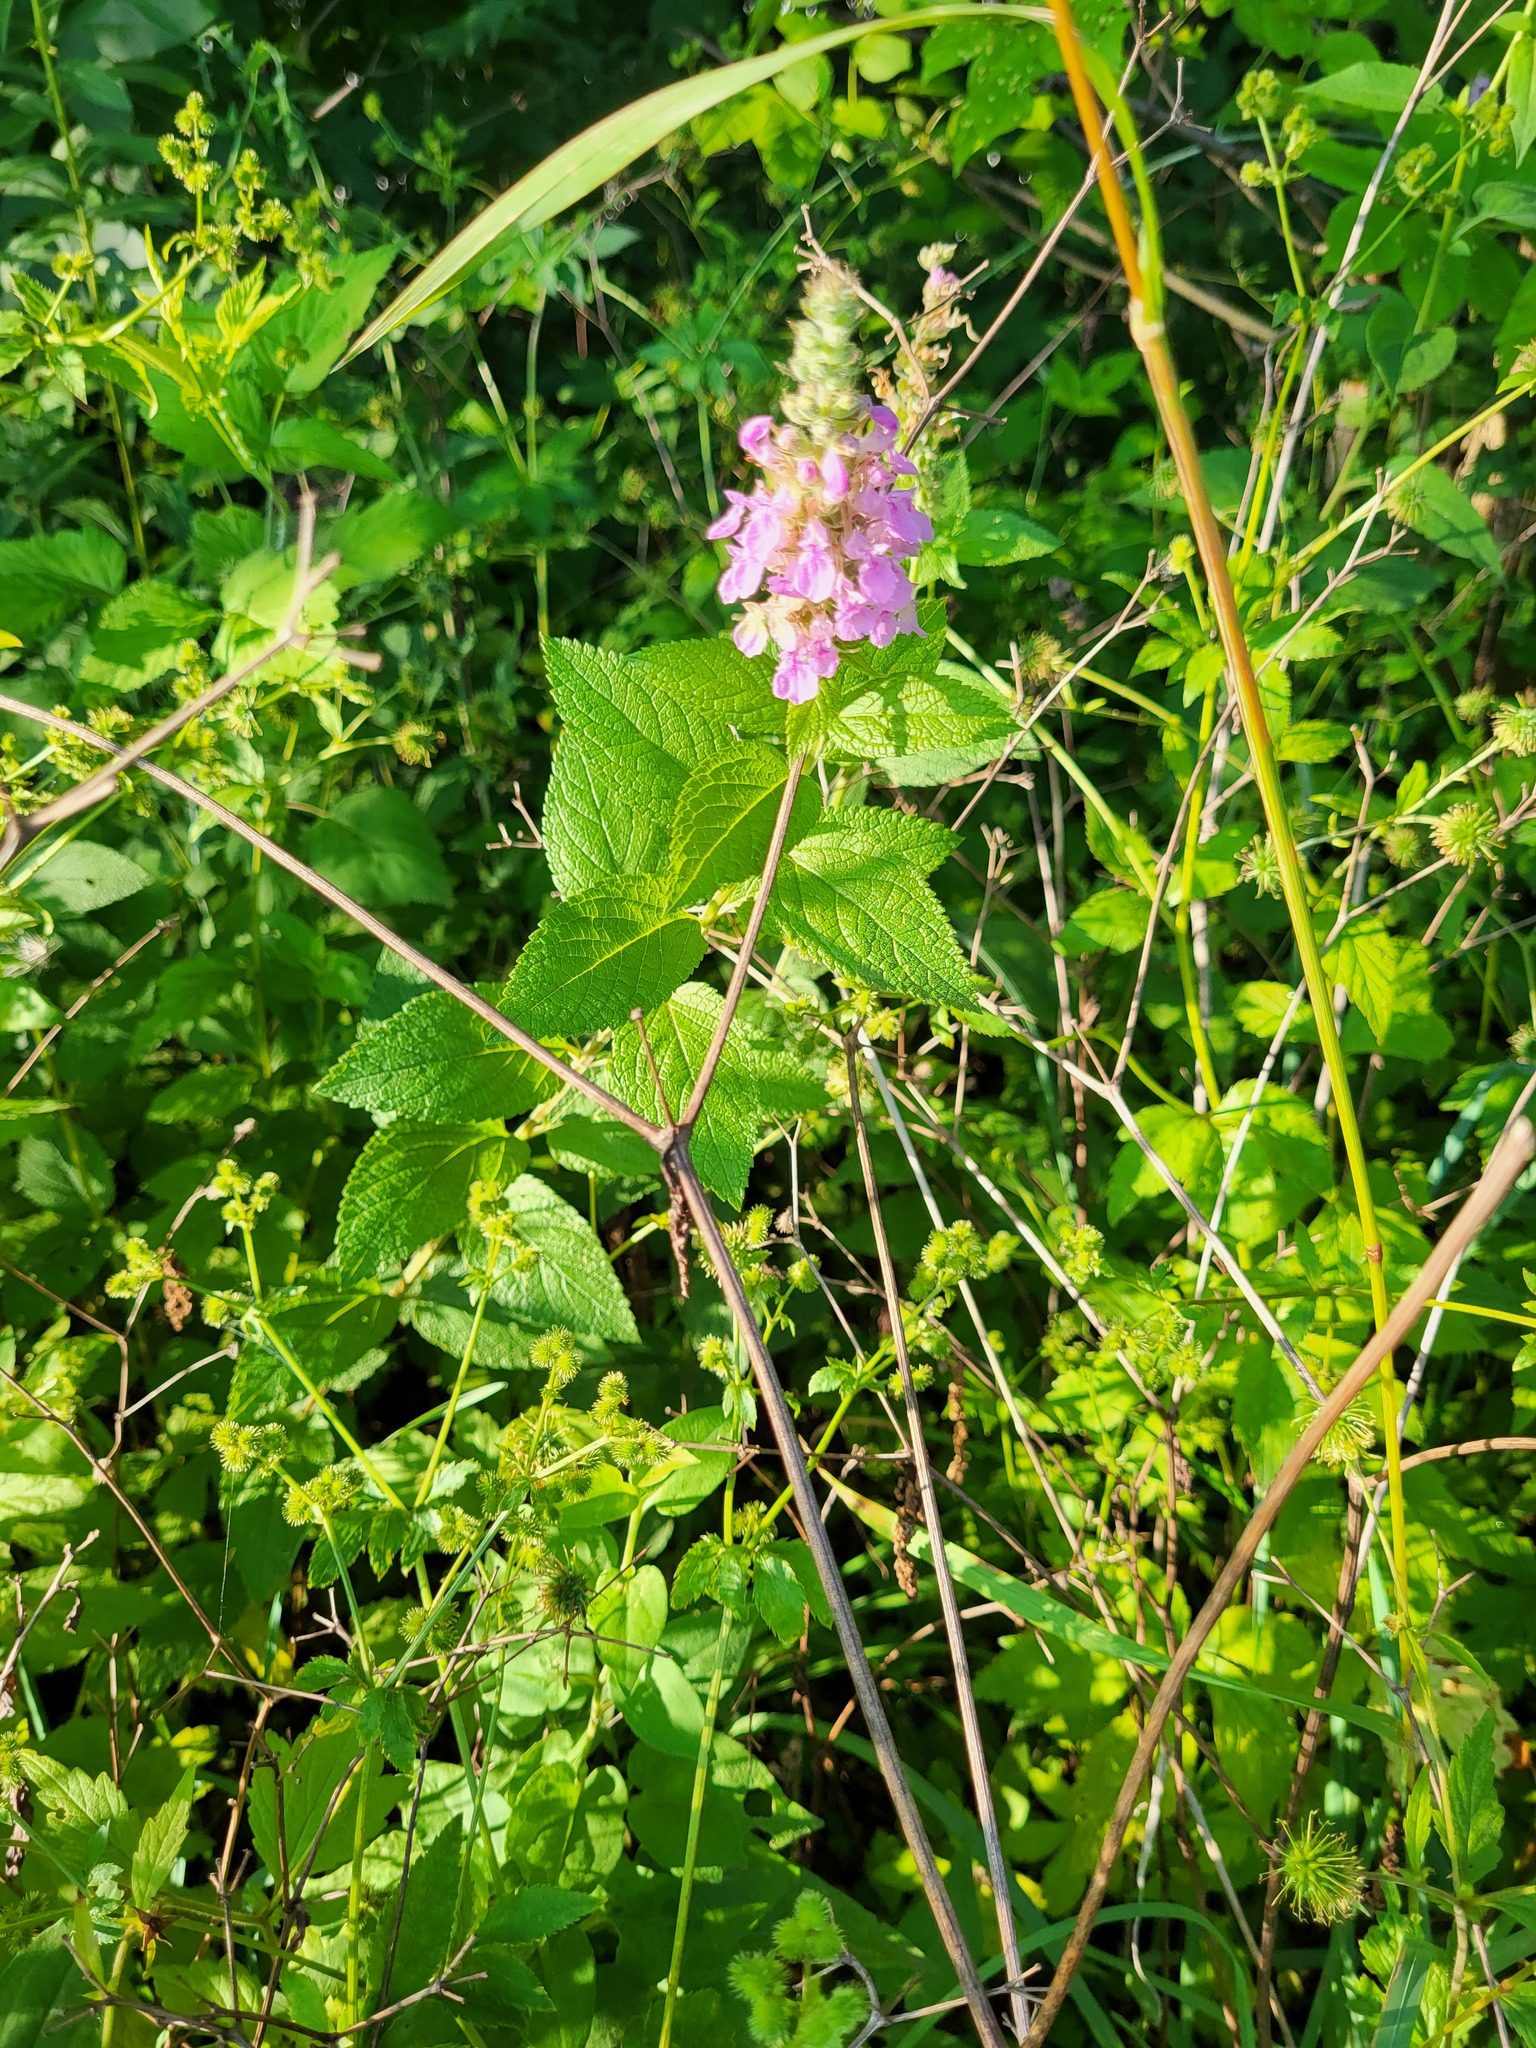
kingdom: Plantae
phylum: Tracheophyta
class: Magnoliopsida
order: Lamiales
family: Lamiaceae
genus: Teucrium
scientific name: Teucrium canadense
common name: American germander
